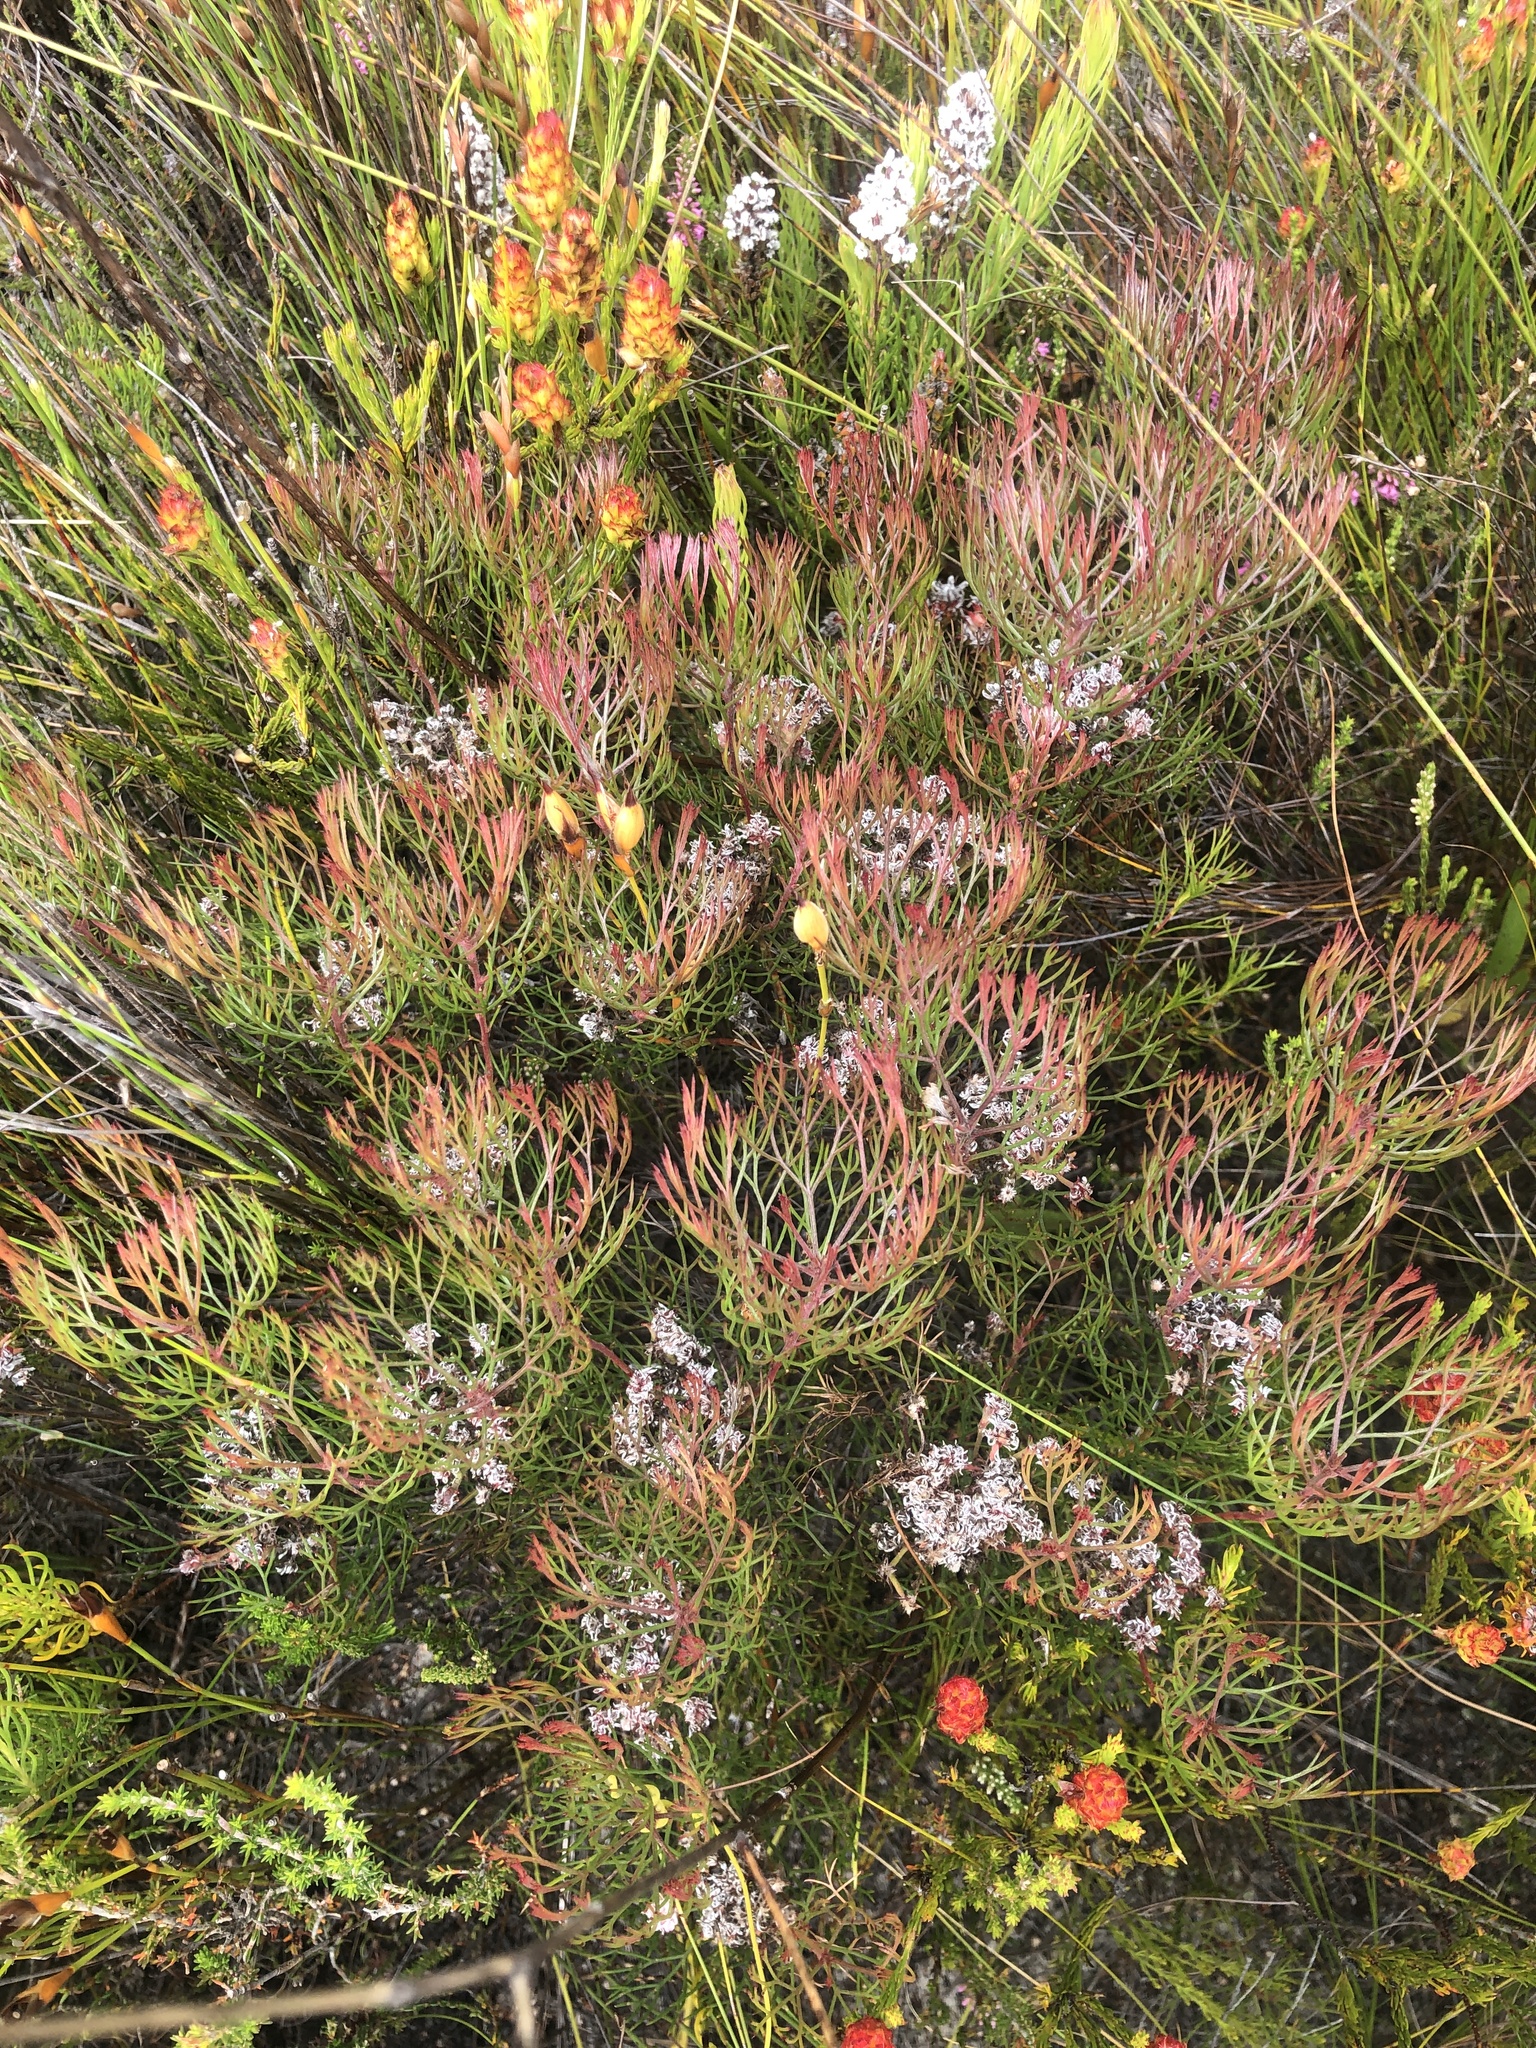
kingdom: Plantae
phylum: Tracheophyta
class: Magnoliopsida
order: Proteales
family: Proteaceae
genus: Serruria
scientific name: Serruria fasciflora
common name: Common pin spiderhead
